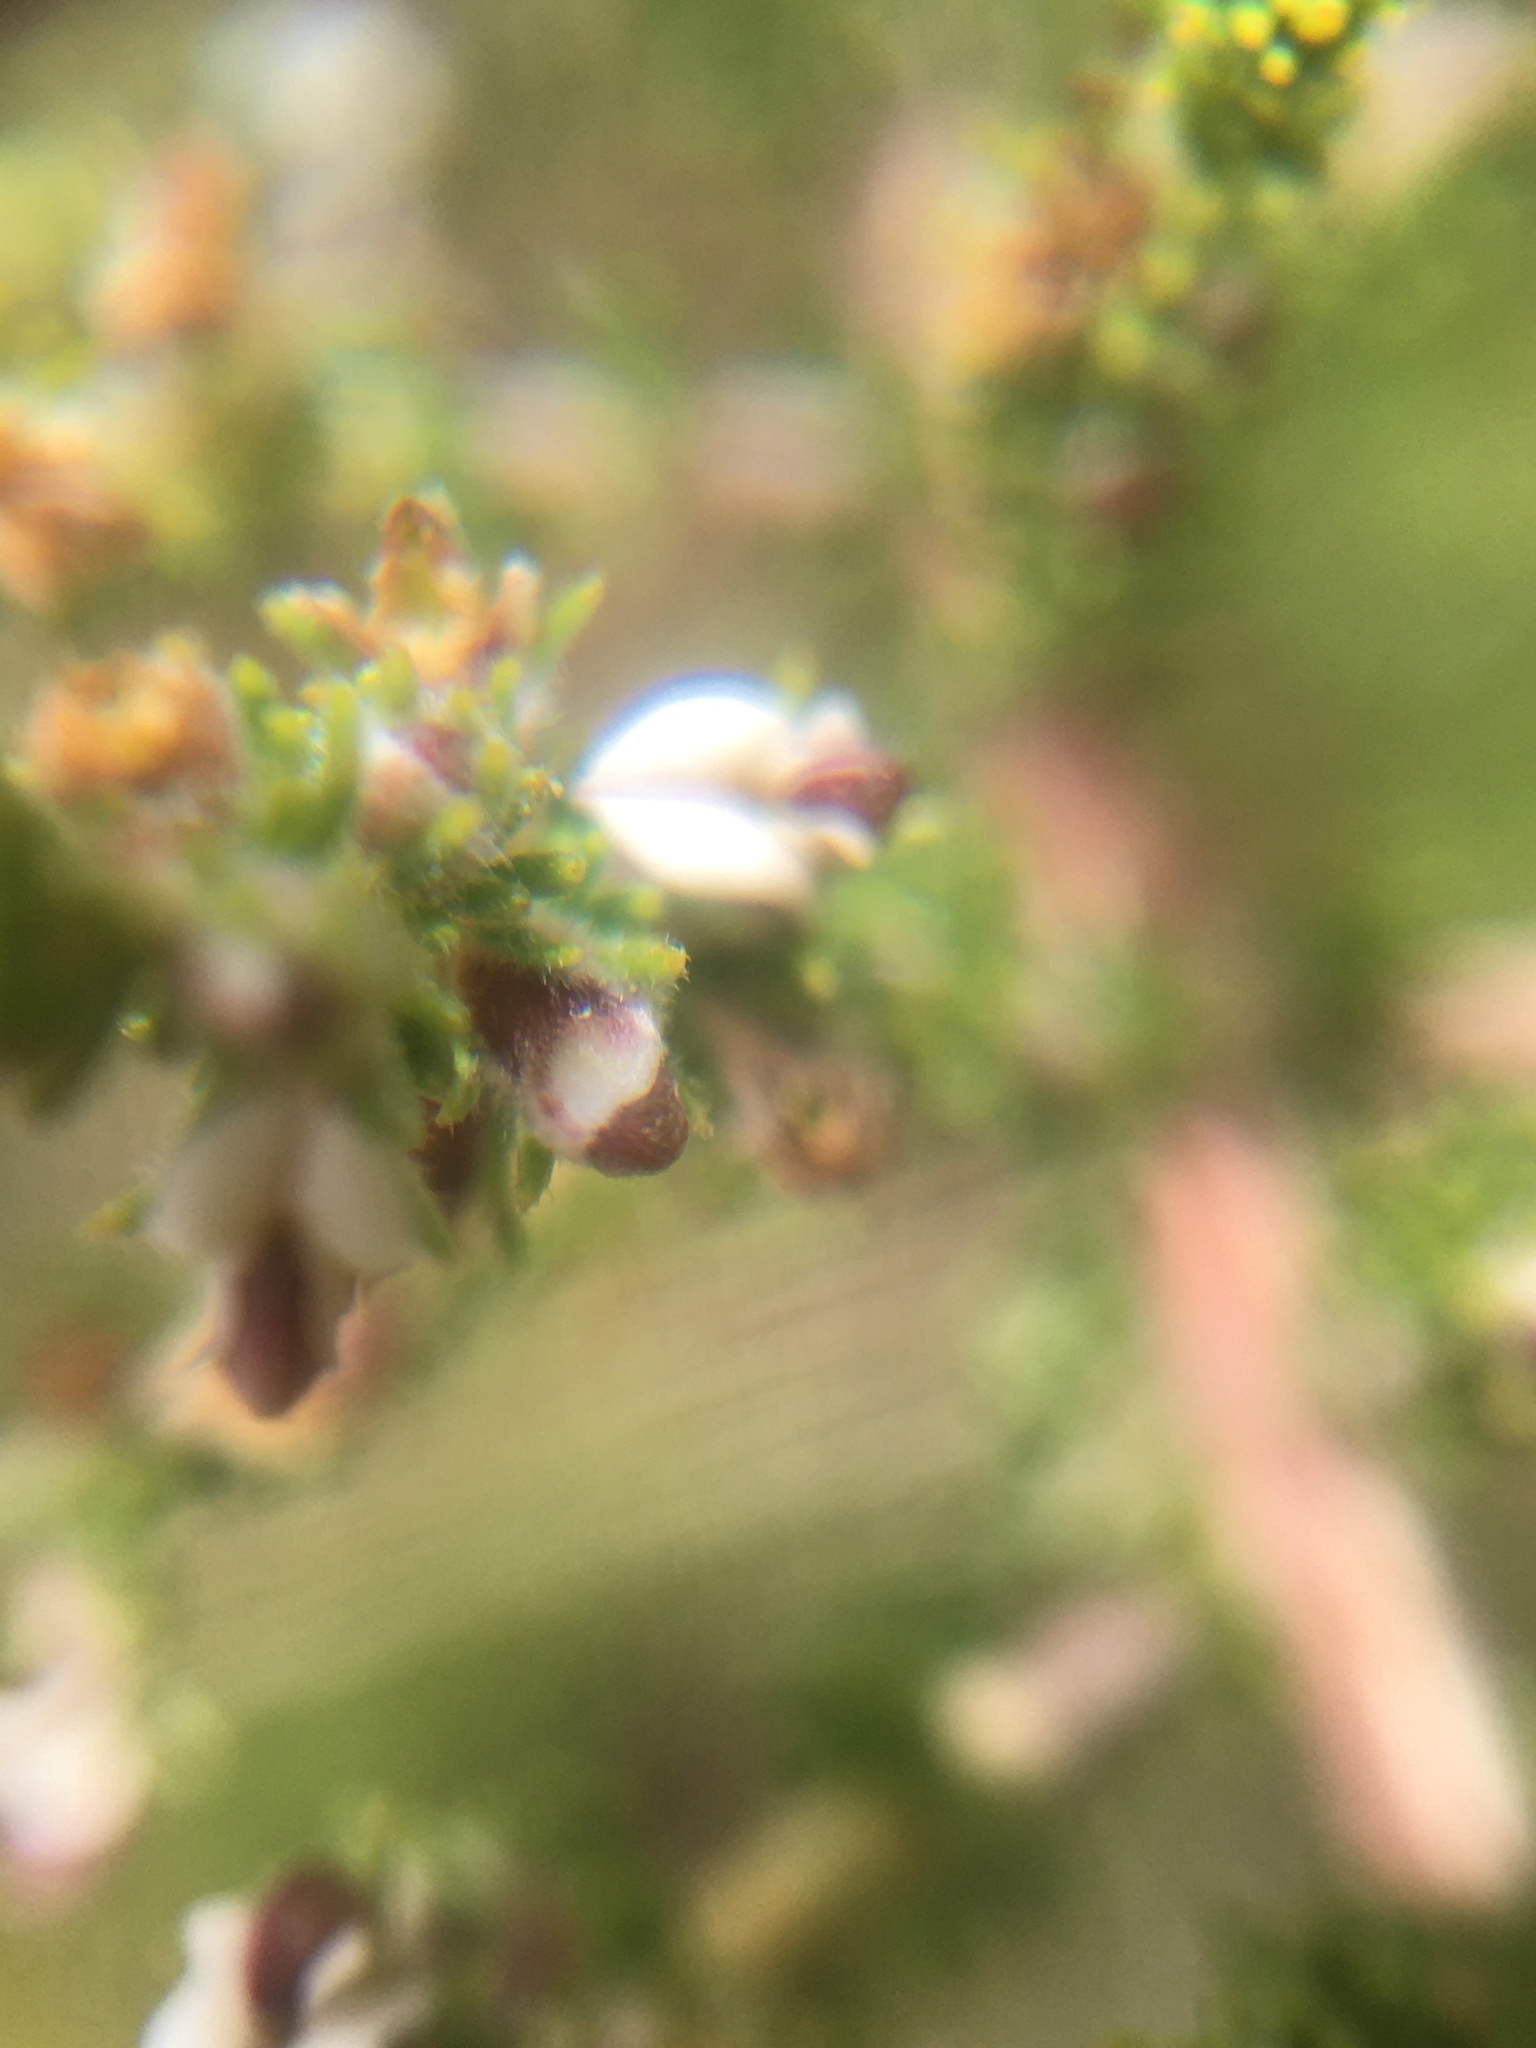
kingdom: Plantae
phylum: Tracheophyta
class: Magnoliopsida
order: Fabales
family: Fabaceae
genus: Aspalathus
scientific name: Aspalathus hispida
